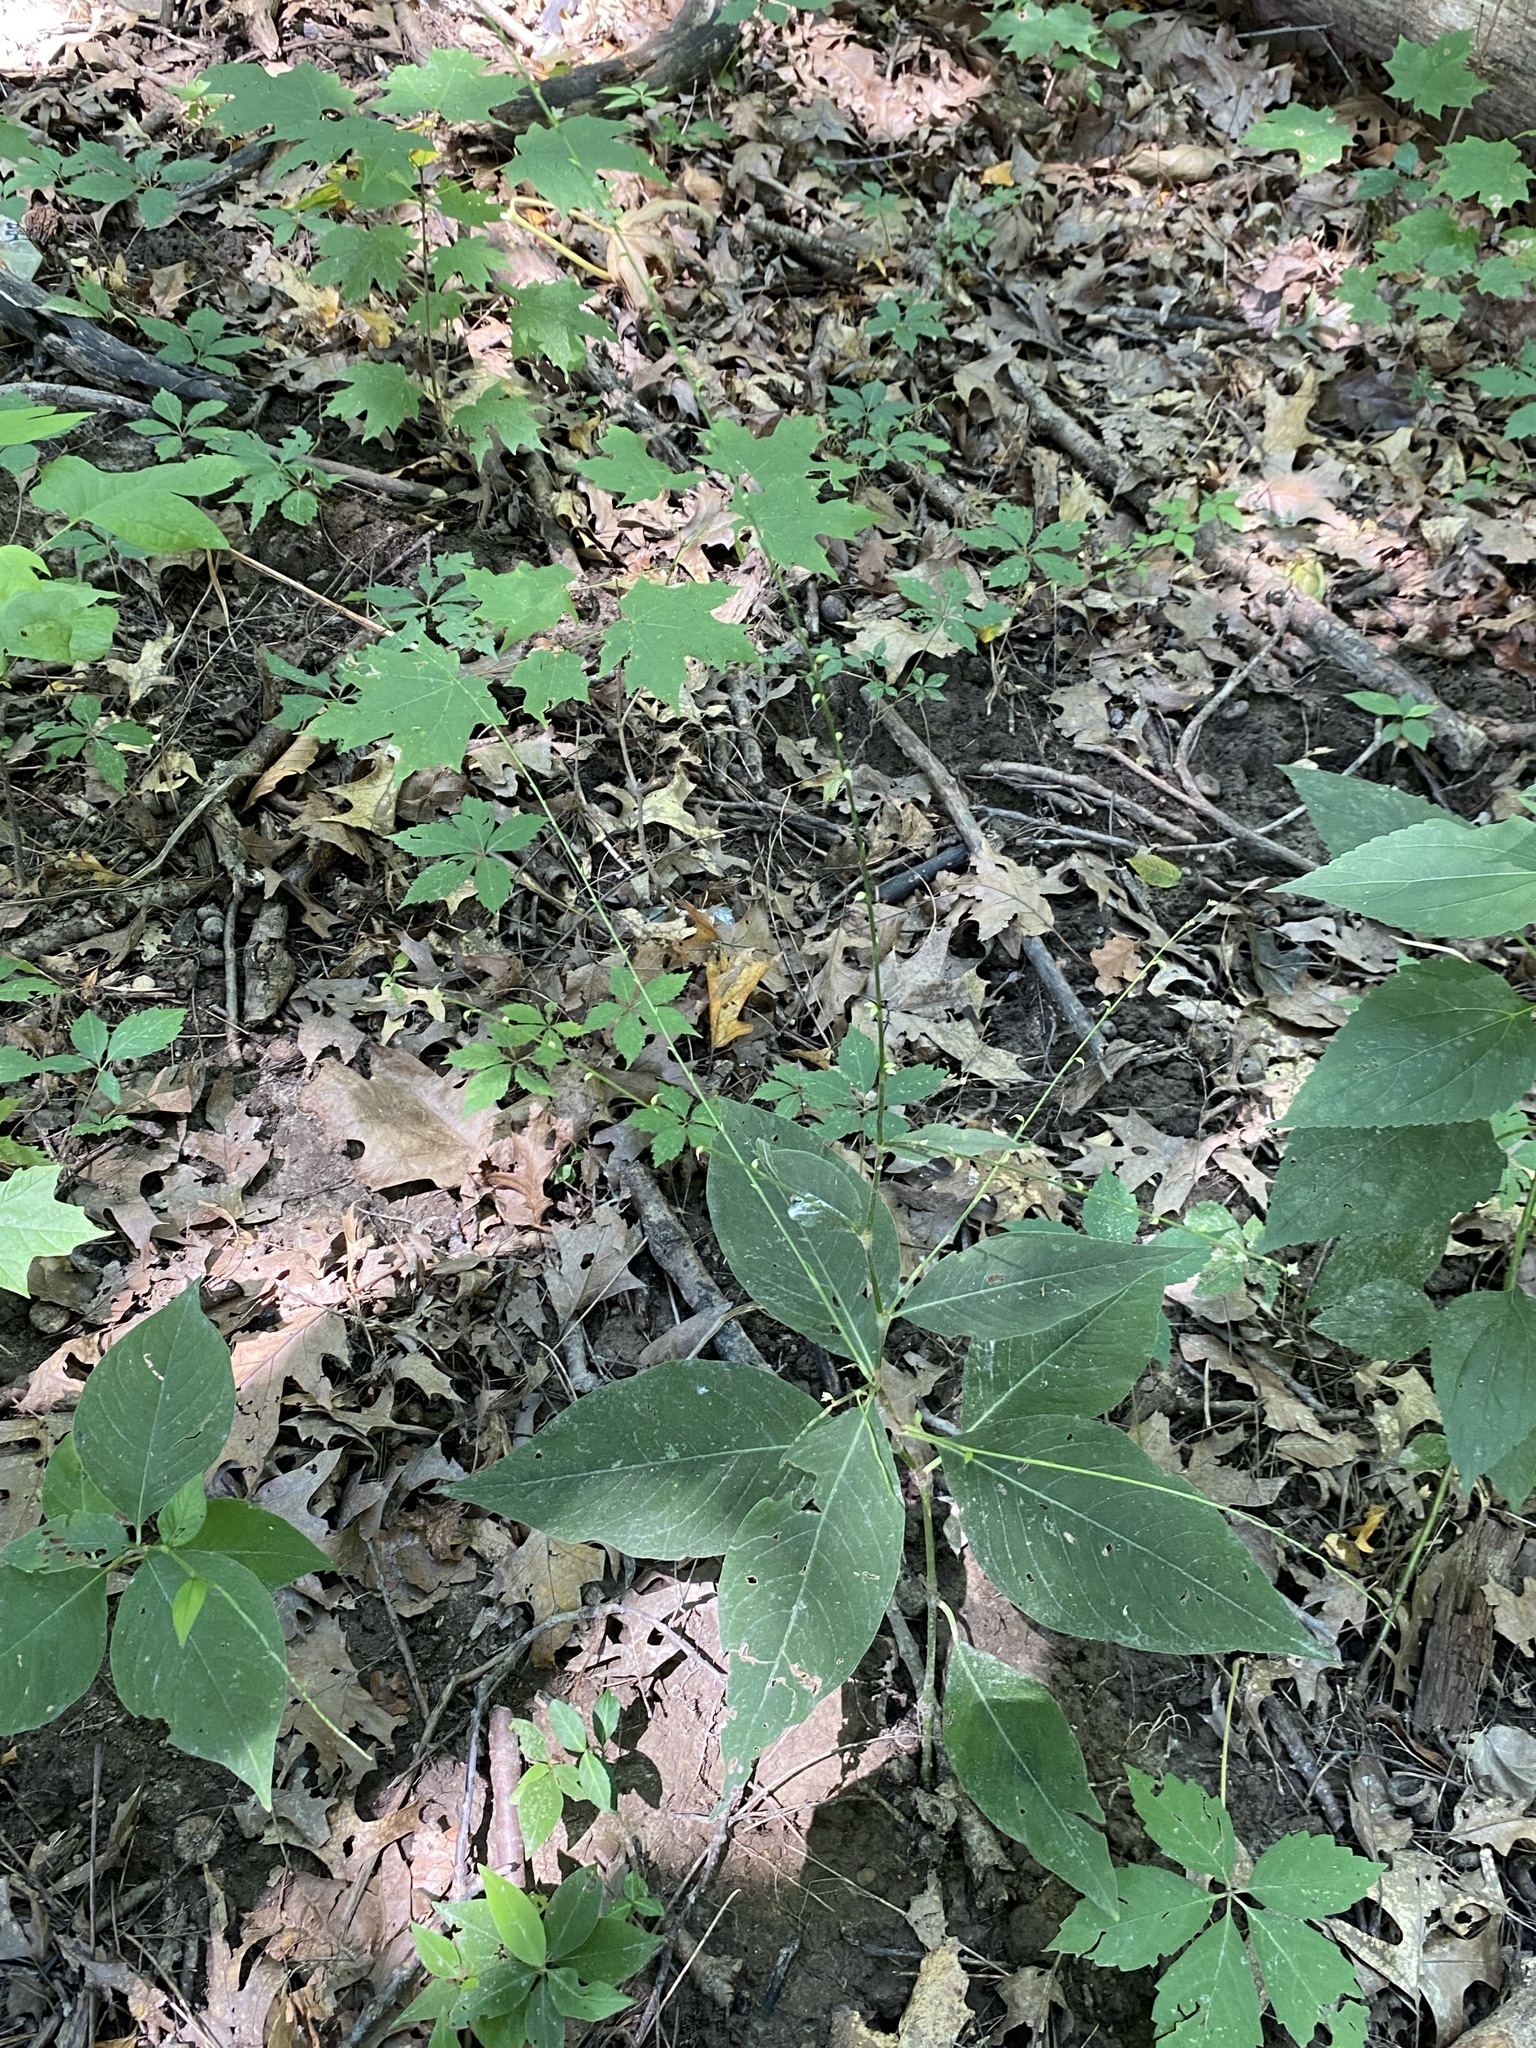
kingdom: Plantae
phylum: Tracheophyta
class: Magnoliopsida
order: Caryophyllales
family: Polygonaceae
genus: Persicaria
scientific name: Persicaria virginiana
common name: Jumpseed
